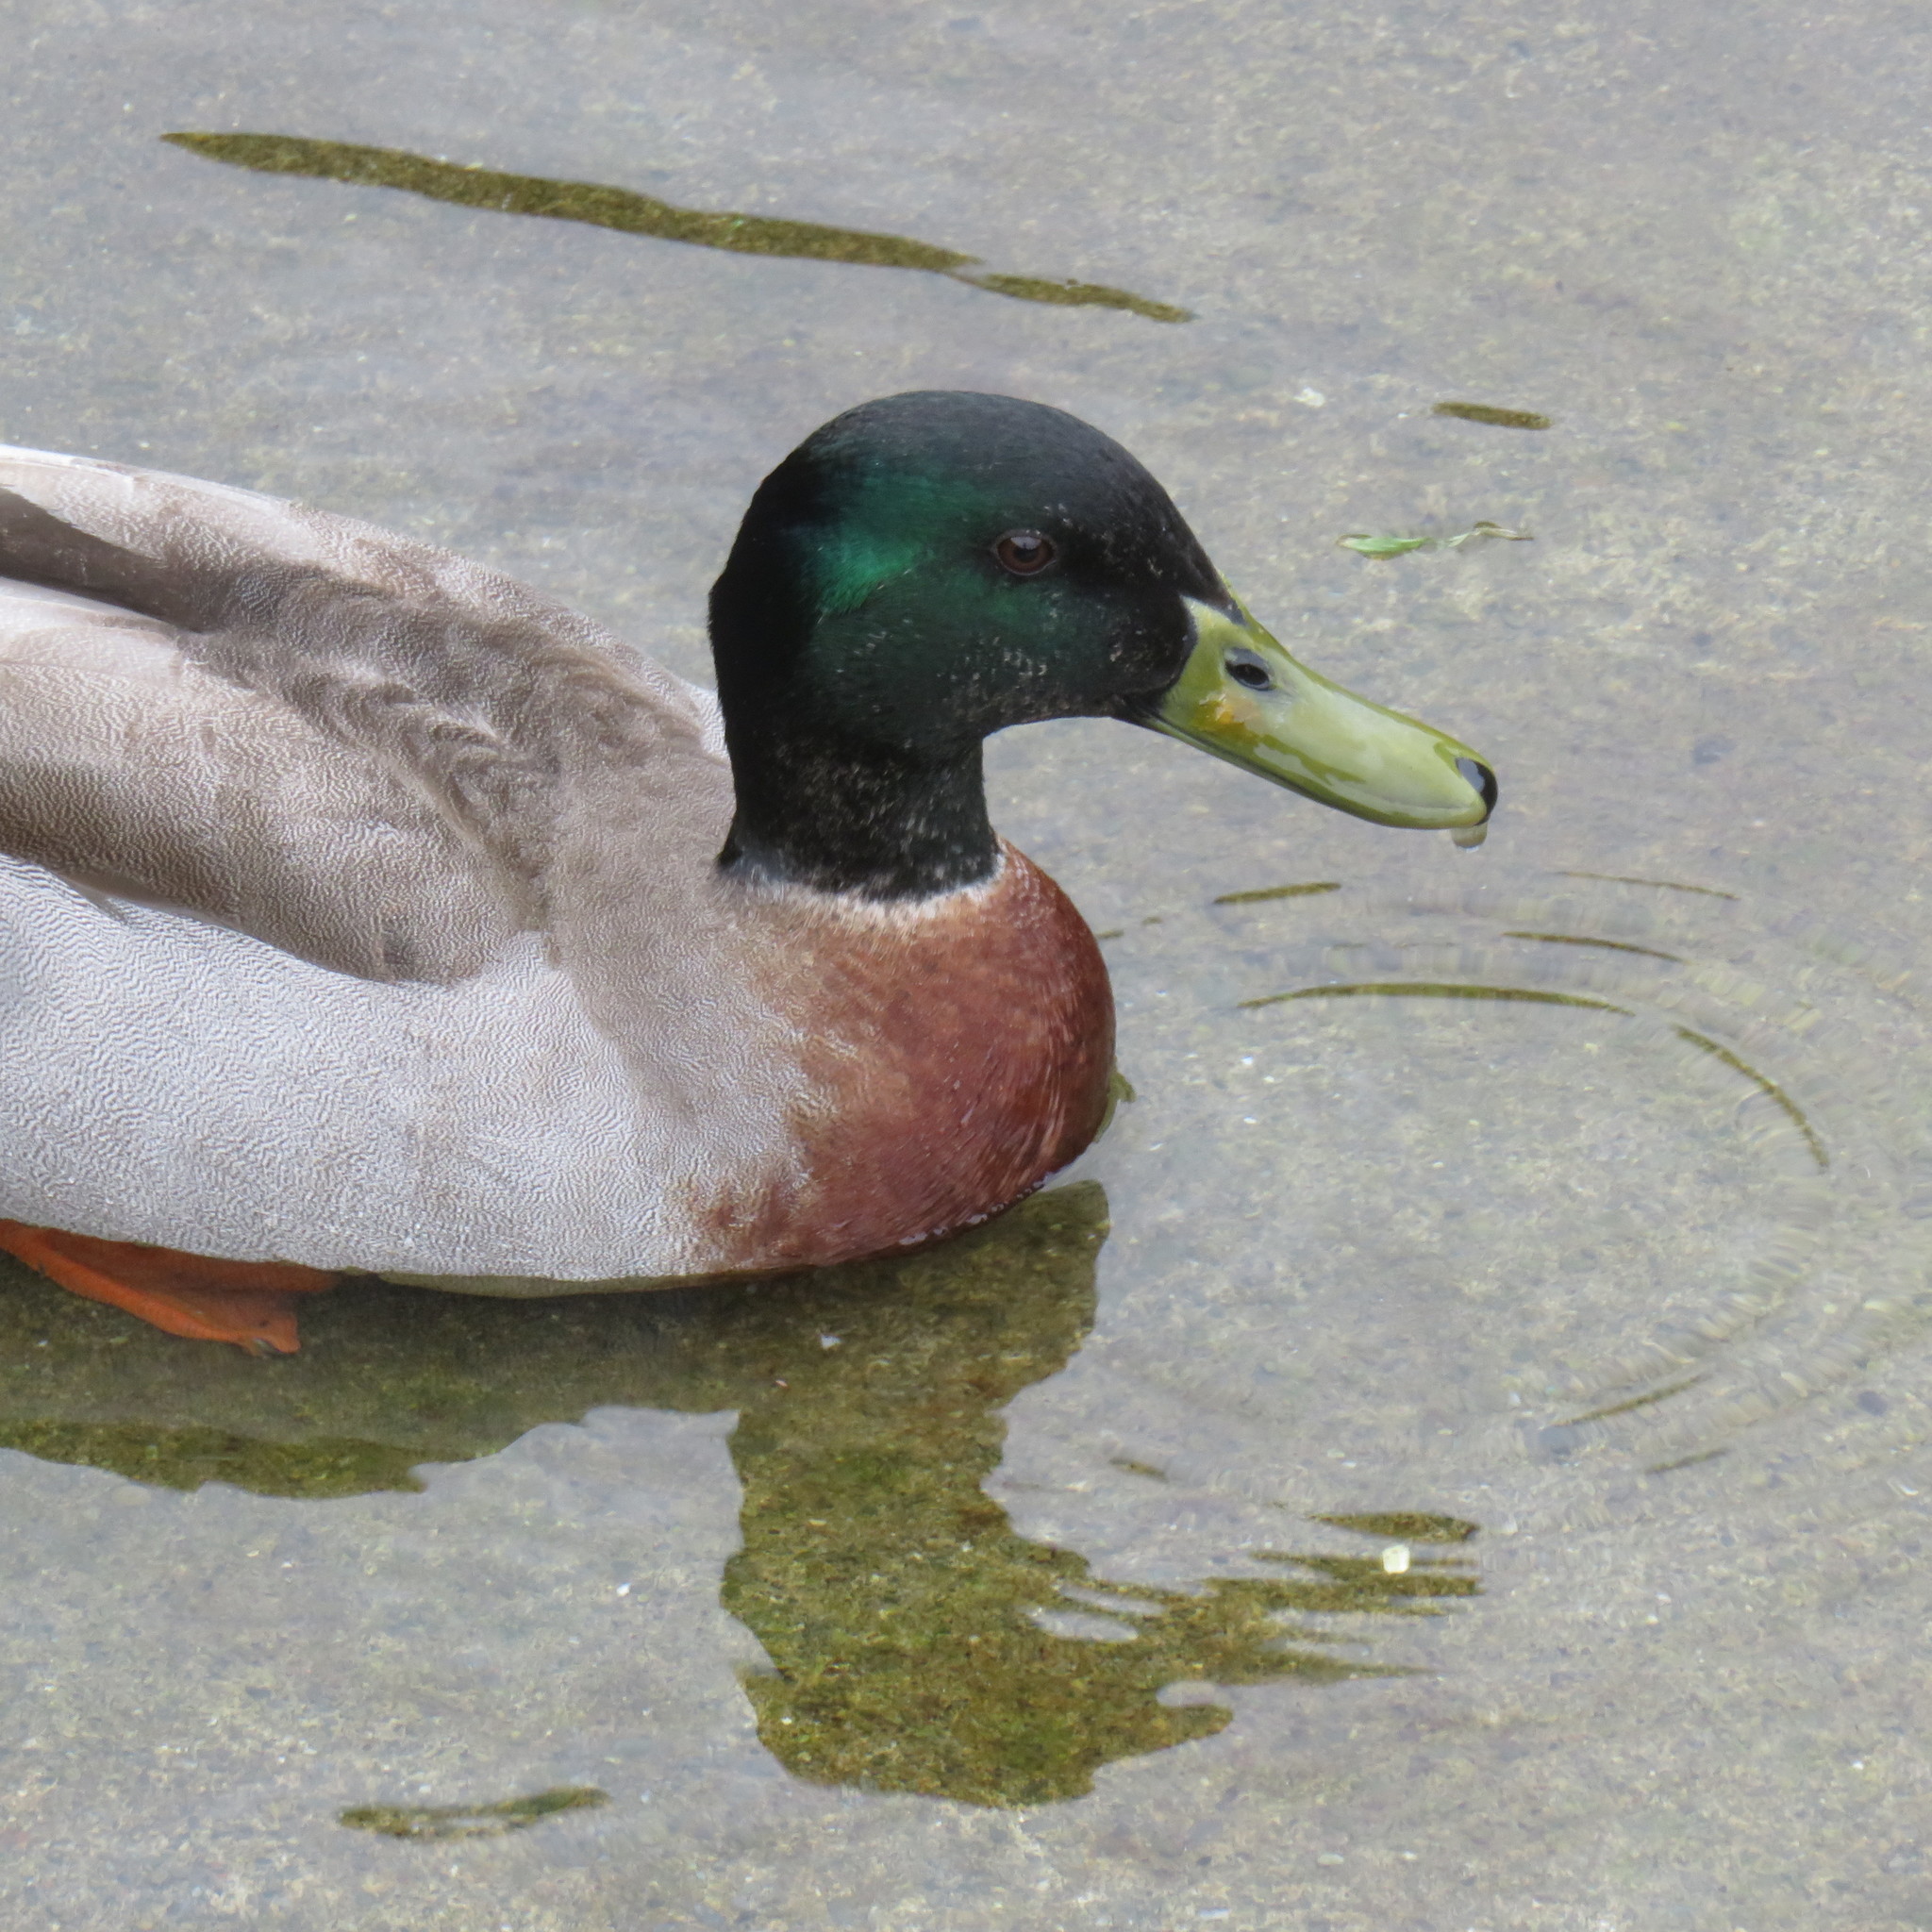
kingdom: Animalia
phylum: Chordata
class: Aves
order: Anseriformes
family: Anatidae
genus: Anas
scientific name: Anas platyrhynchos
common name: Mallard
